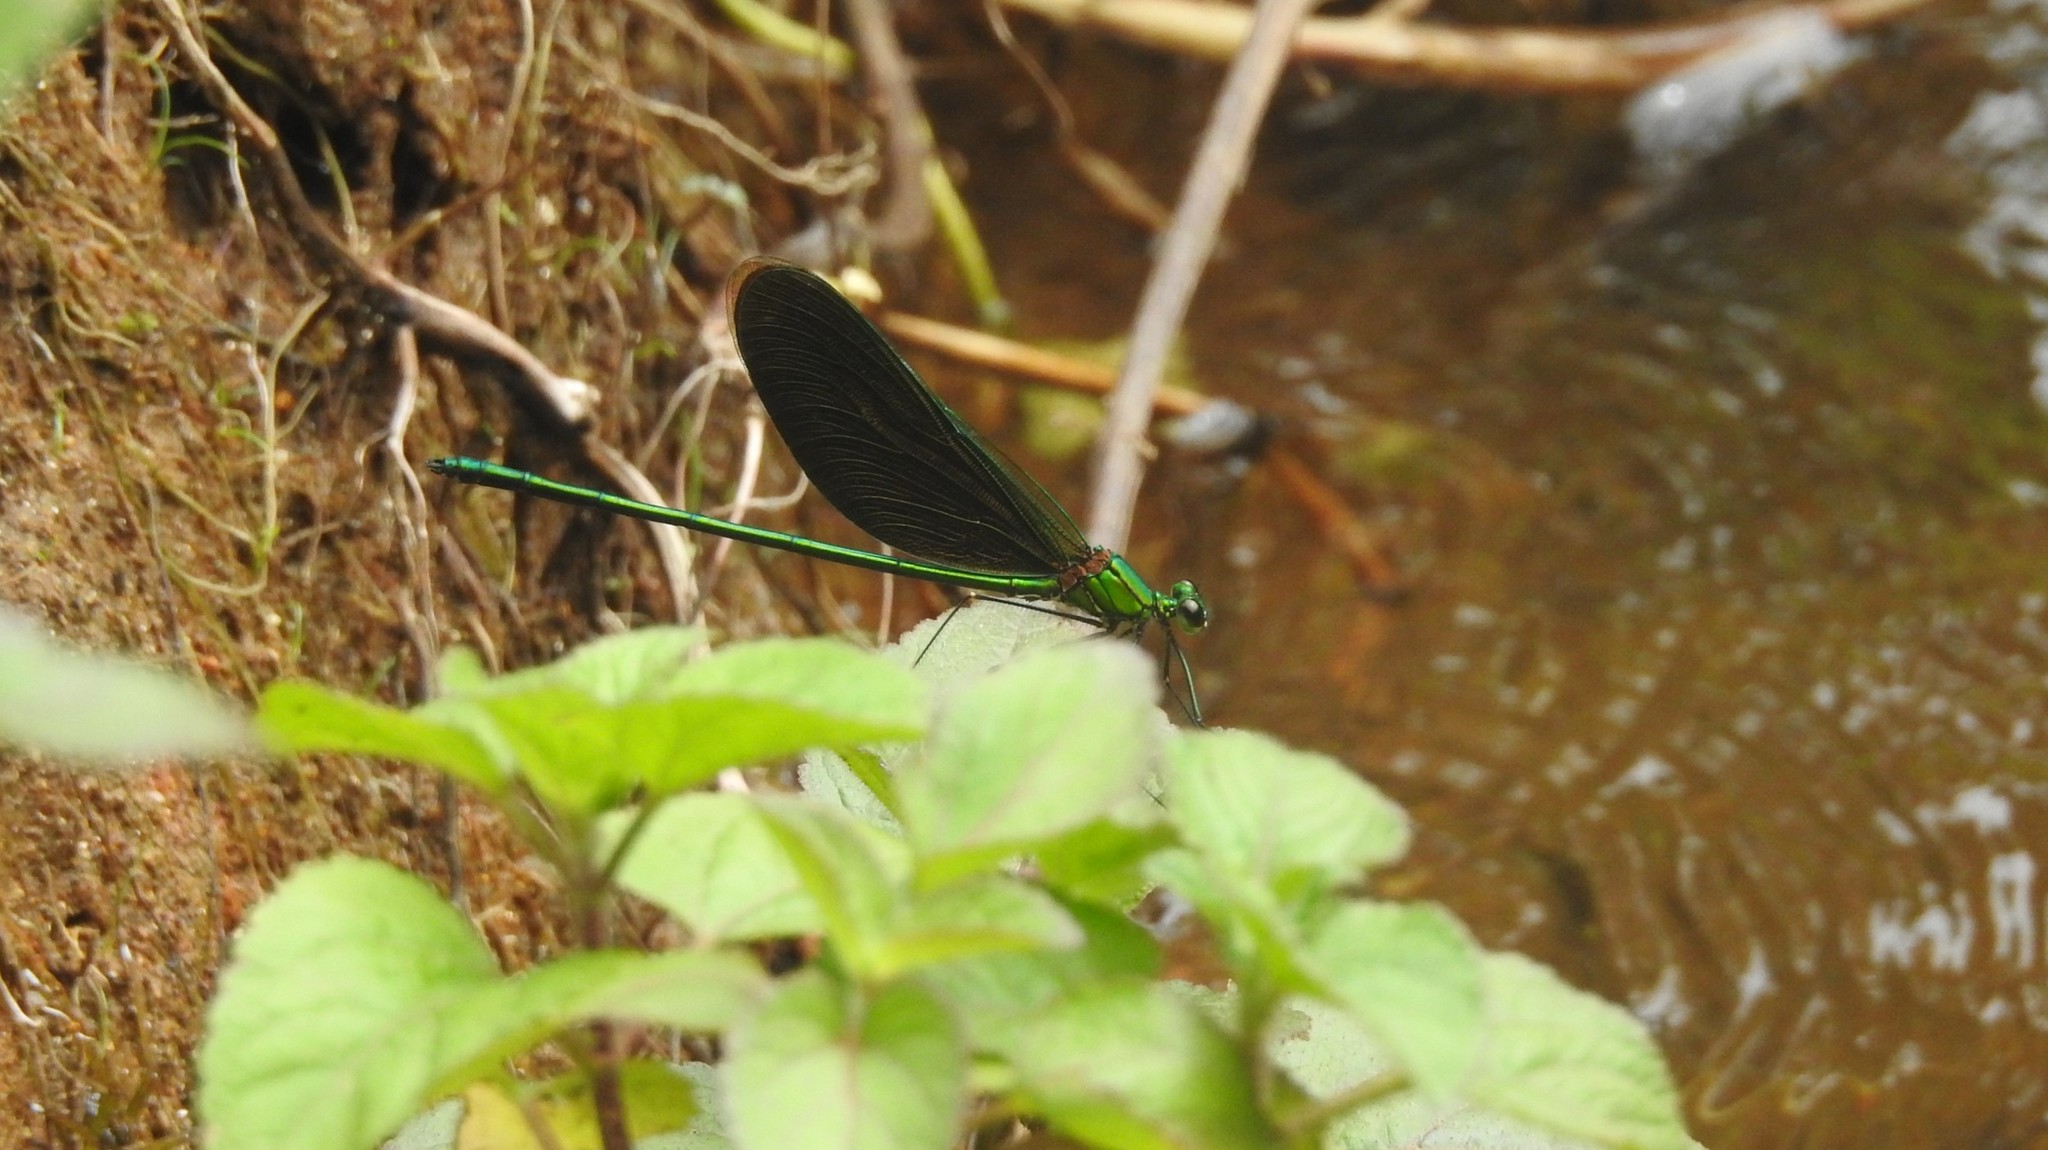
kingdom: Animalia
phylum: Arthropoda
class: Insecta
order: Odonata
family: Calopterygidae
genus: Neurobasis
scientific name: Neurobasis chinensis
